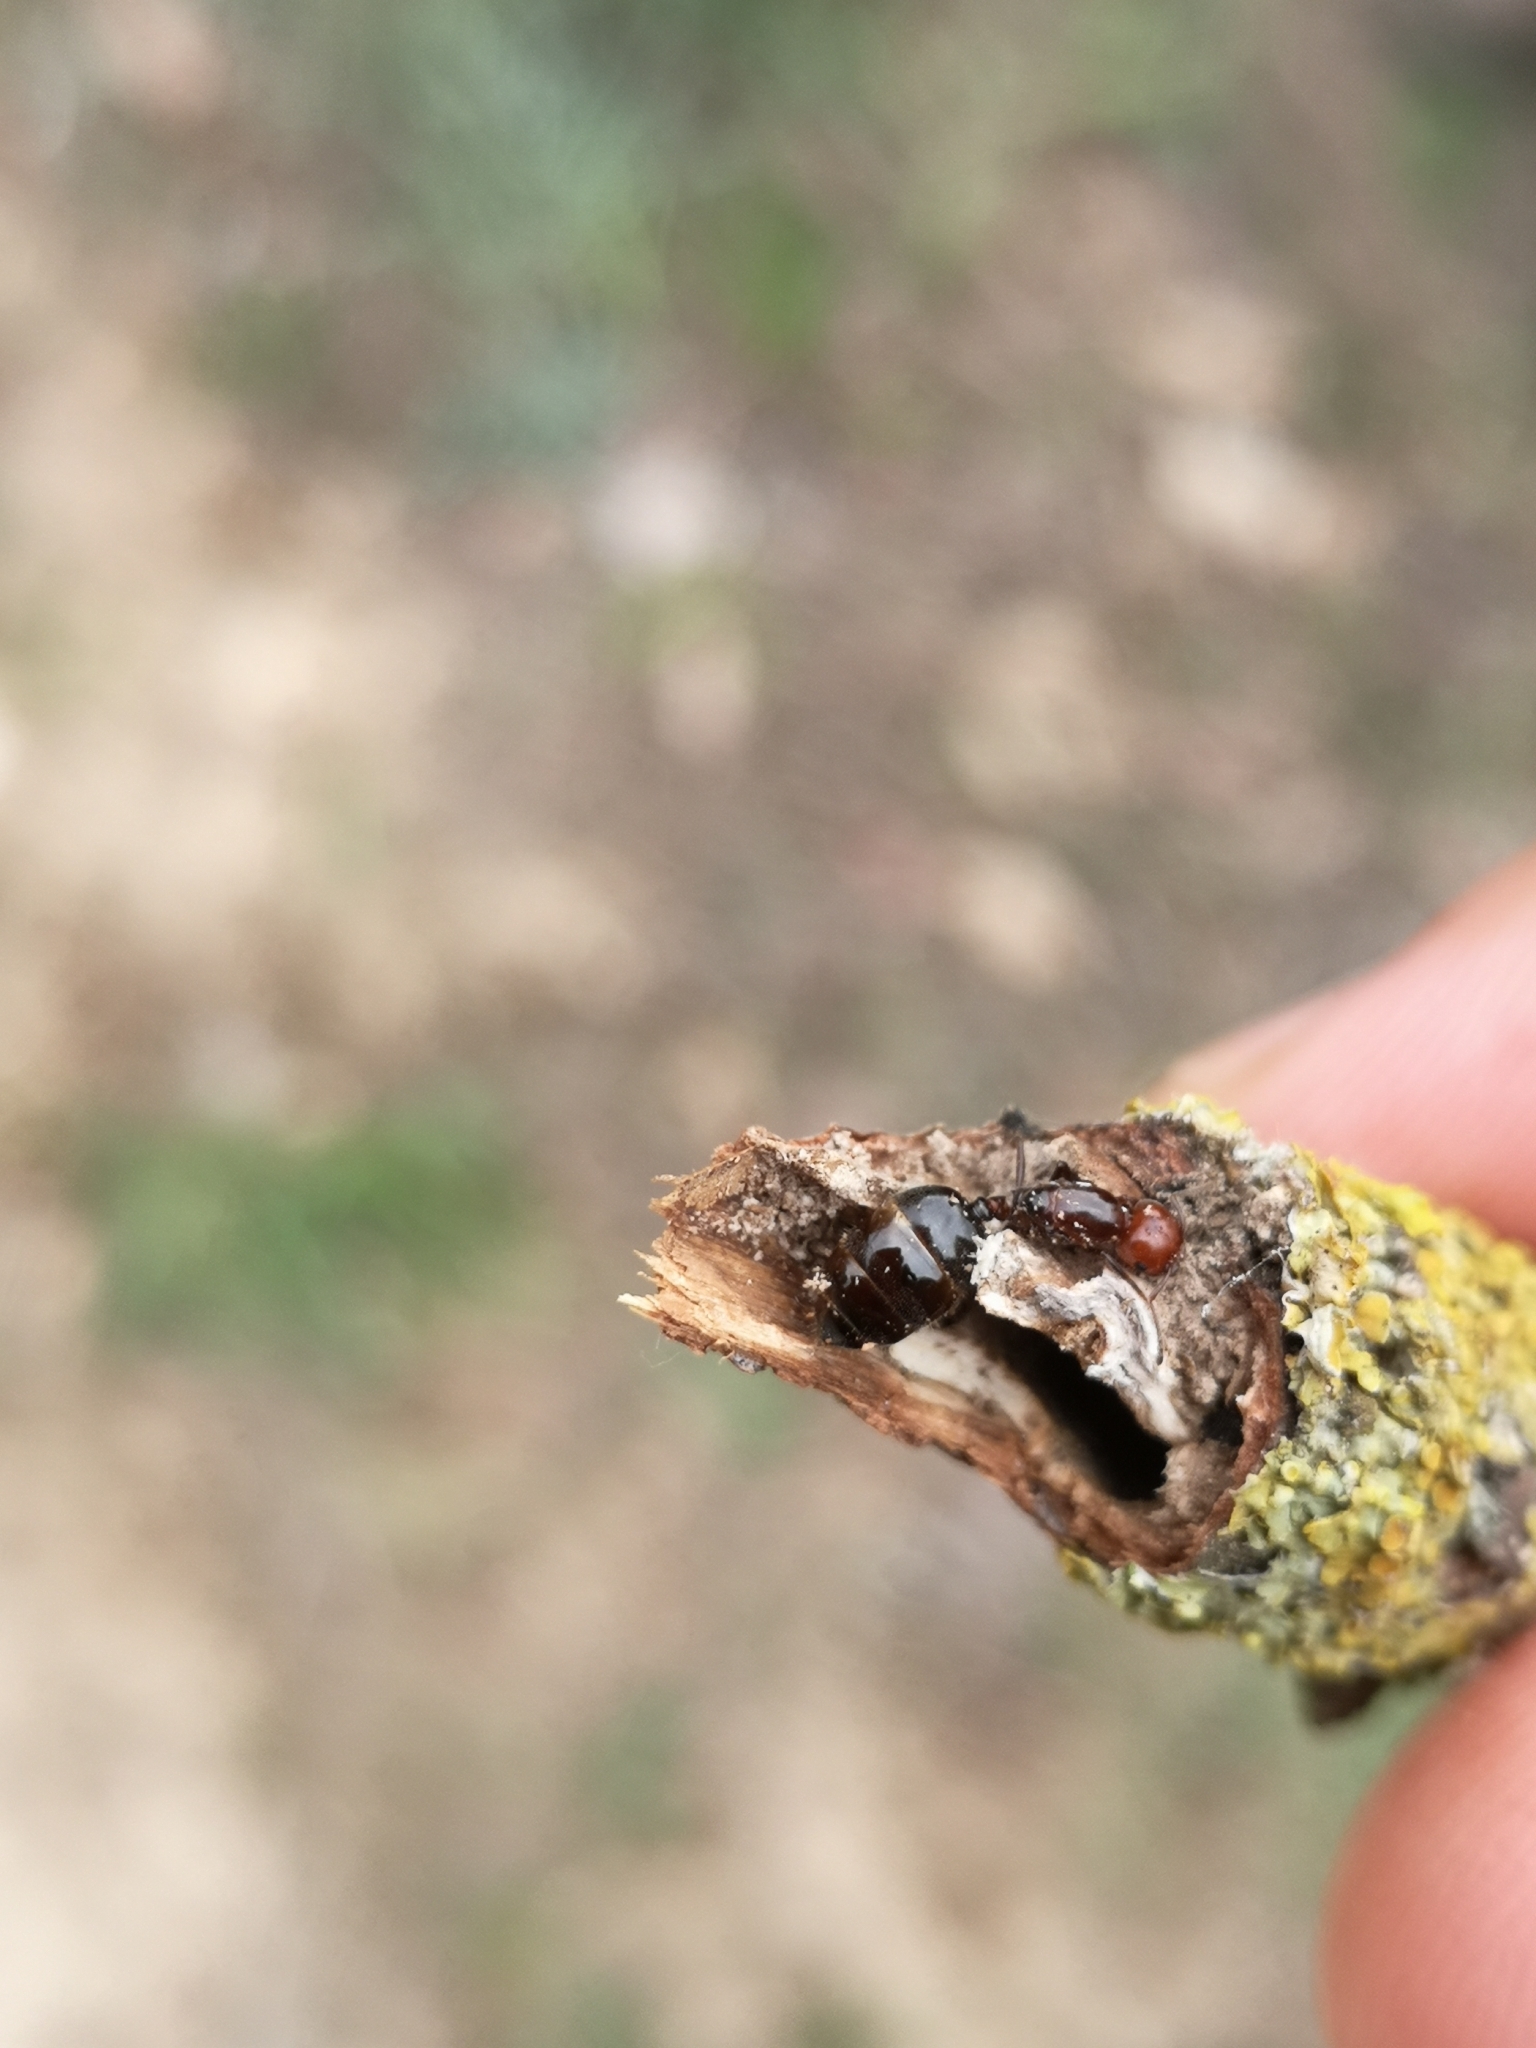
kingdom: Animalia
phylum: Arthropoda
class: Insecta
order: Hymenoptera
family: Formicidae
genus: Crematogaster
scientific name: Crematogaster scutellaris
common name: Fourmi du liège
